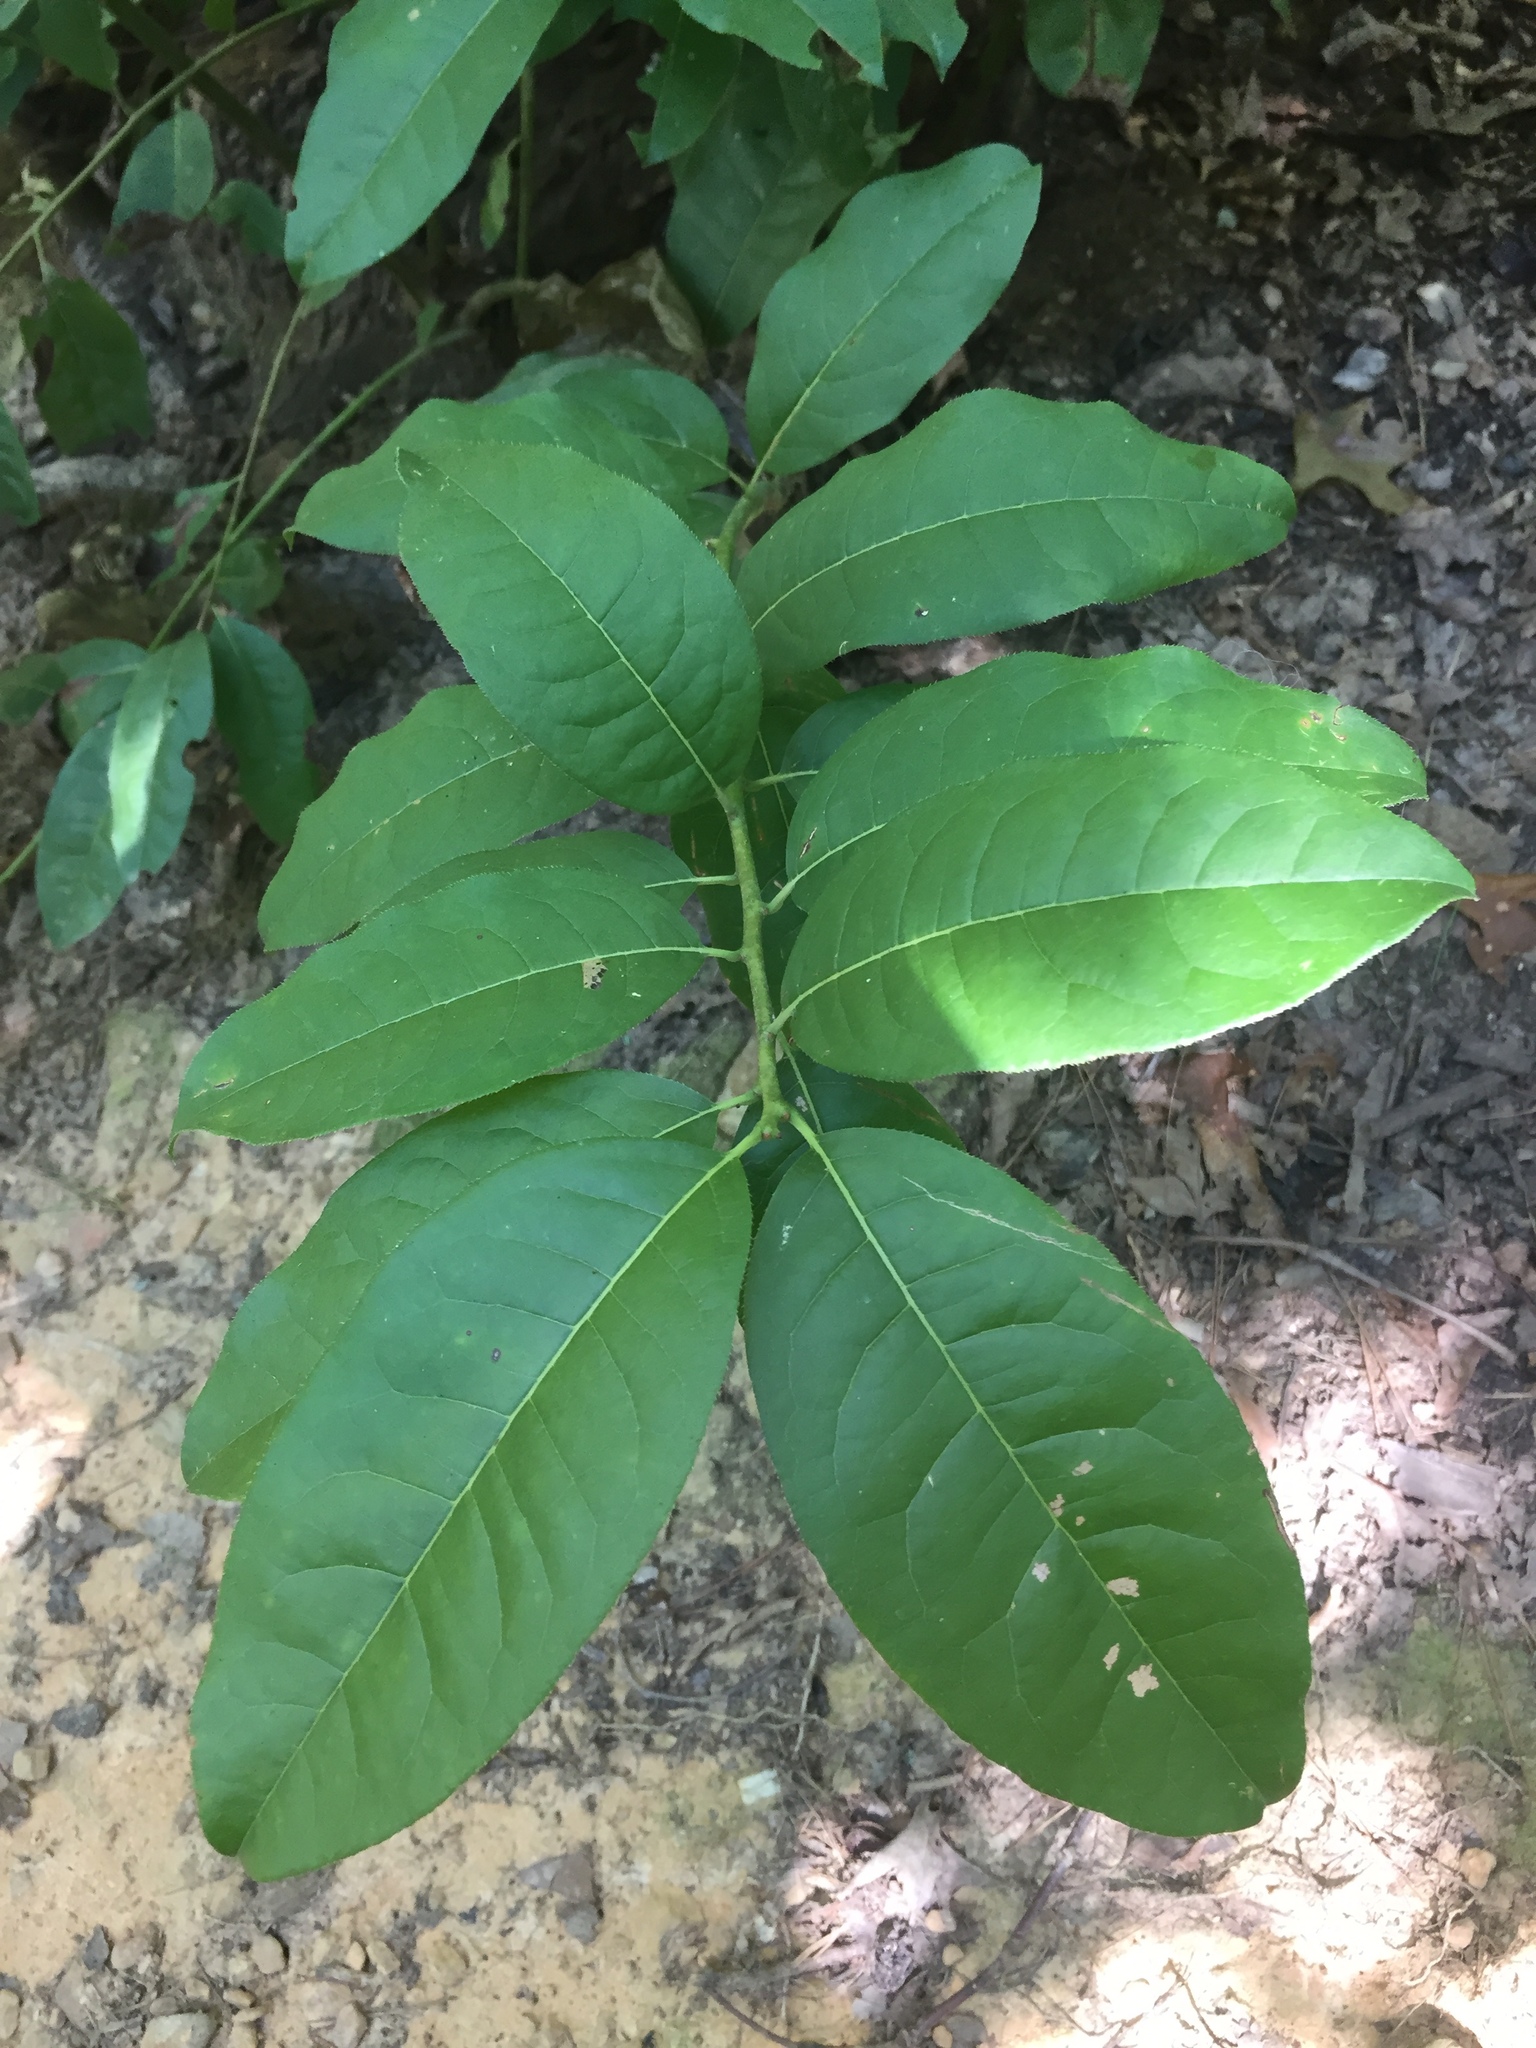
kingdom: Plantae
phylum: Tracheophyta
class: Magnoliopsida
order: Ericales
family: Ericaceae
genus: Oxydendrum
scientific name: Oxydendrum arboreum
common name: Sourwood
